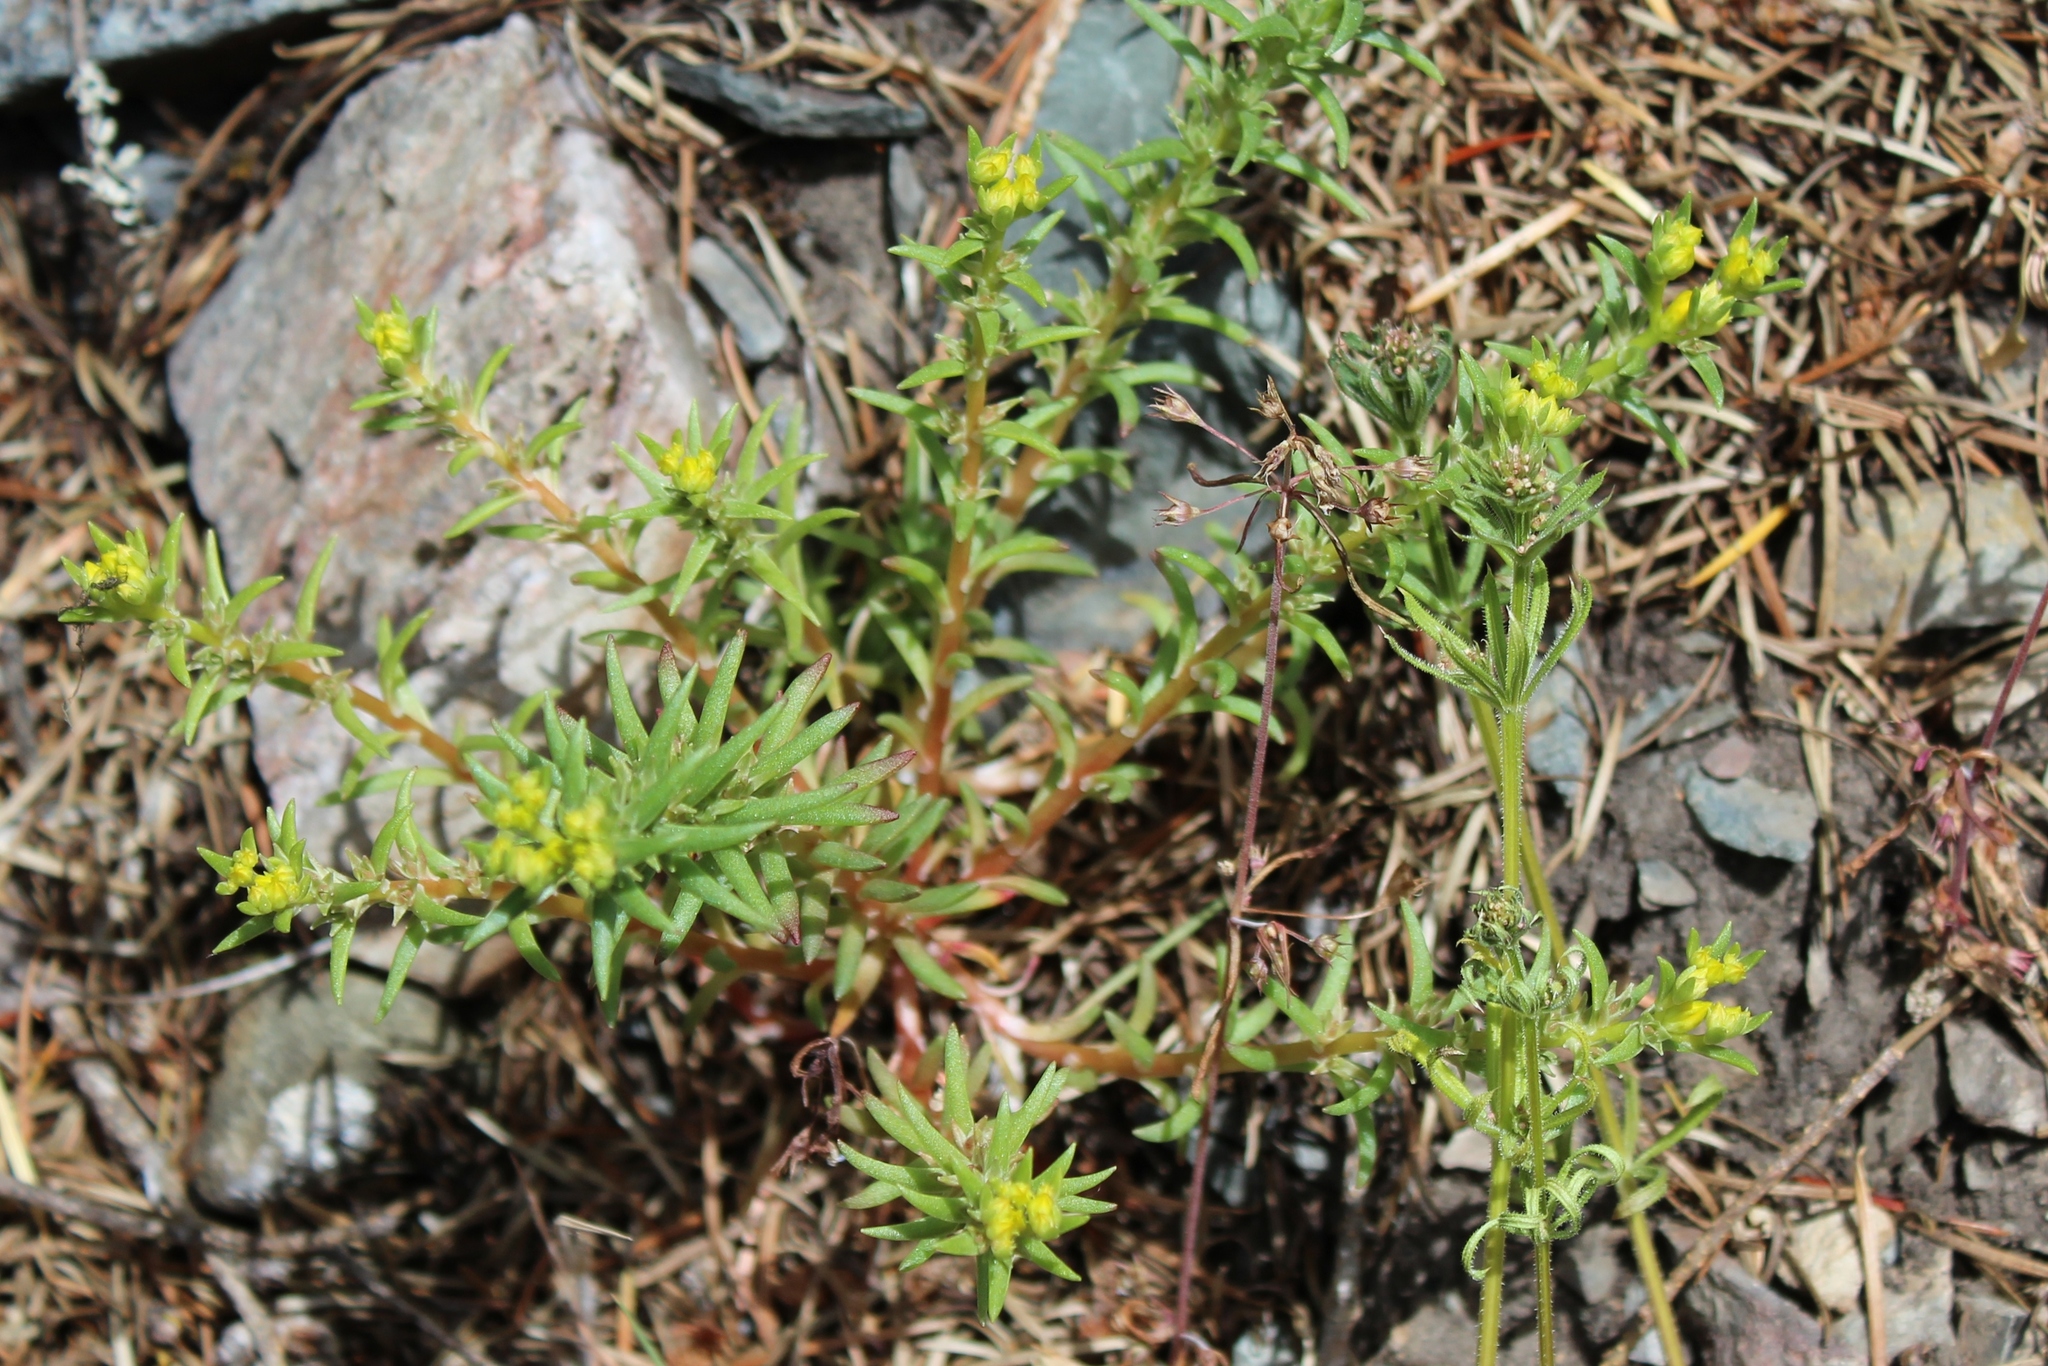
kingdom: Plantae
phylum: Tracheophyta
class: Magnoliopsida
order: Saxifragales
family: Crassulaceae
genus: Sedum
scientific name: Sedum stenopetalum
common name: Narrow-petaled stonecrop
